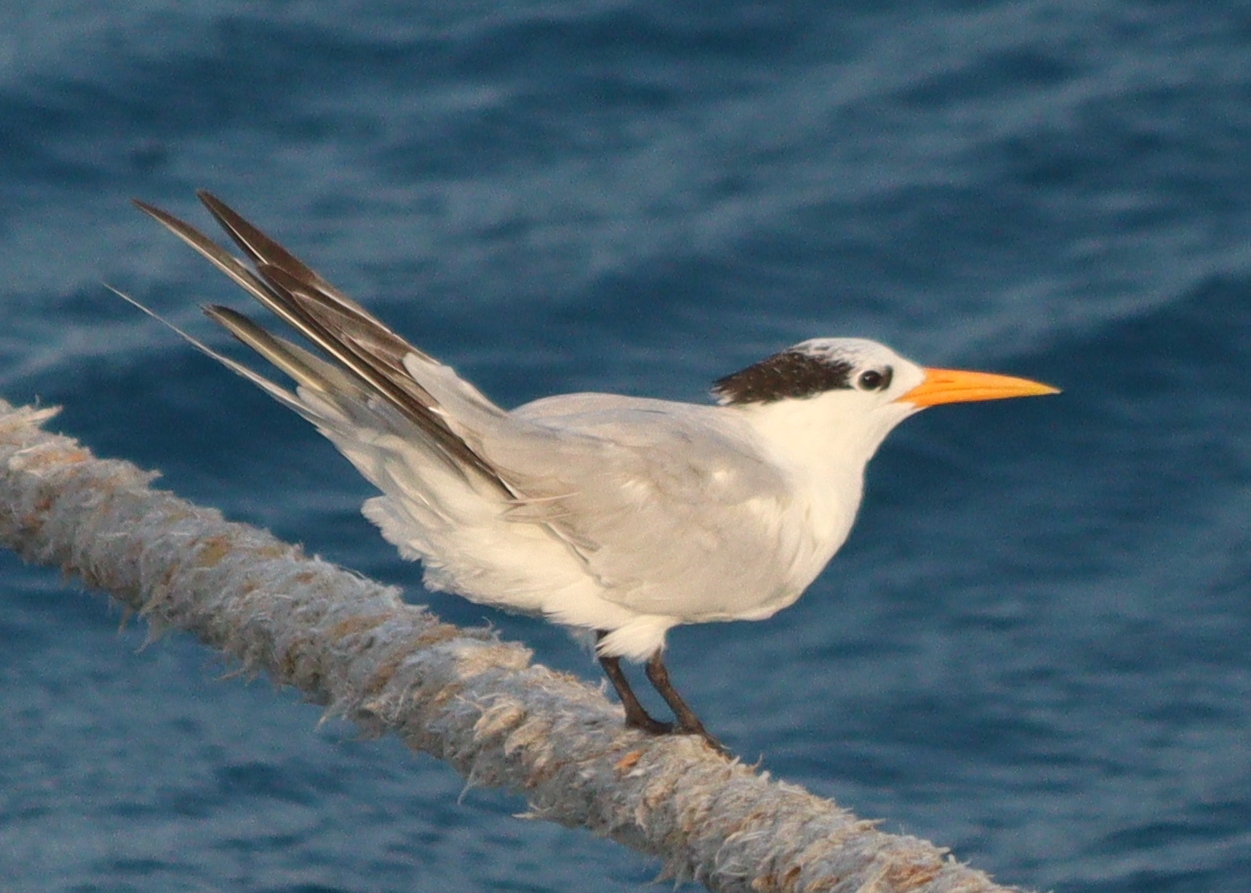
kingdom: Animalia
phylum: Chordata
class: Aves
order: Charadriiformes
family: Laridae
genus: Thalasseus
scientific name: Thalasseus bengalensis
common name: Lesser crested tern
